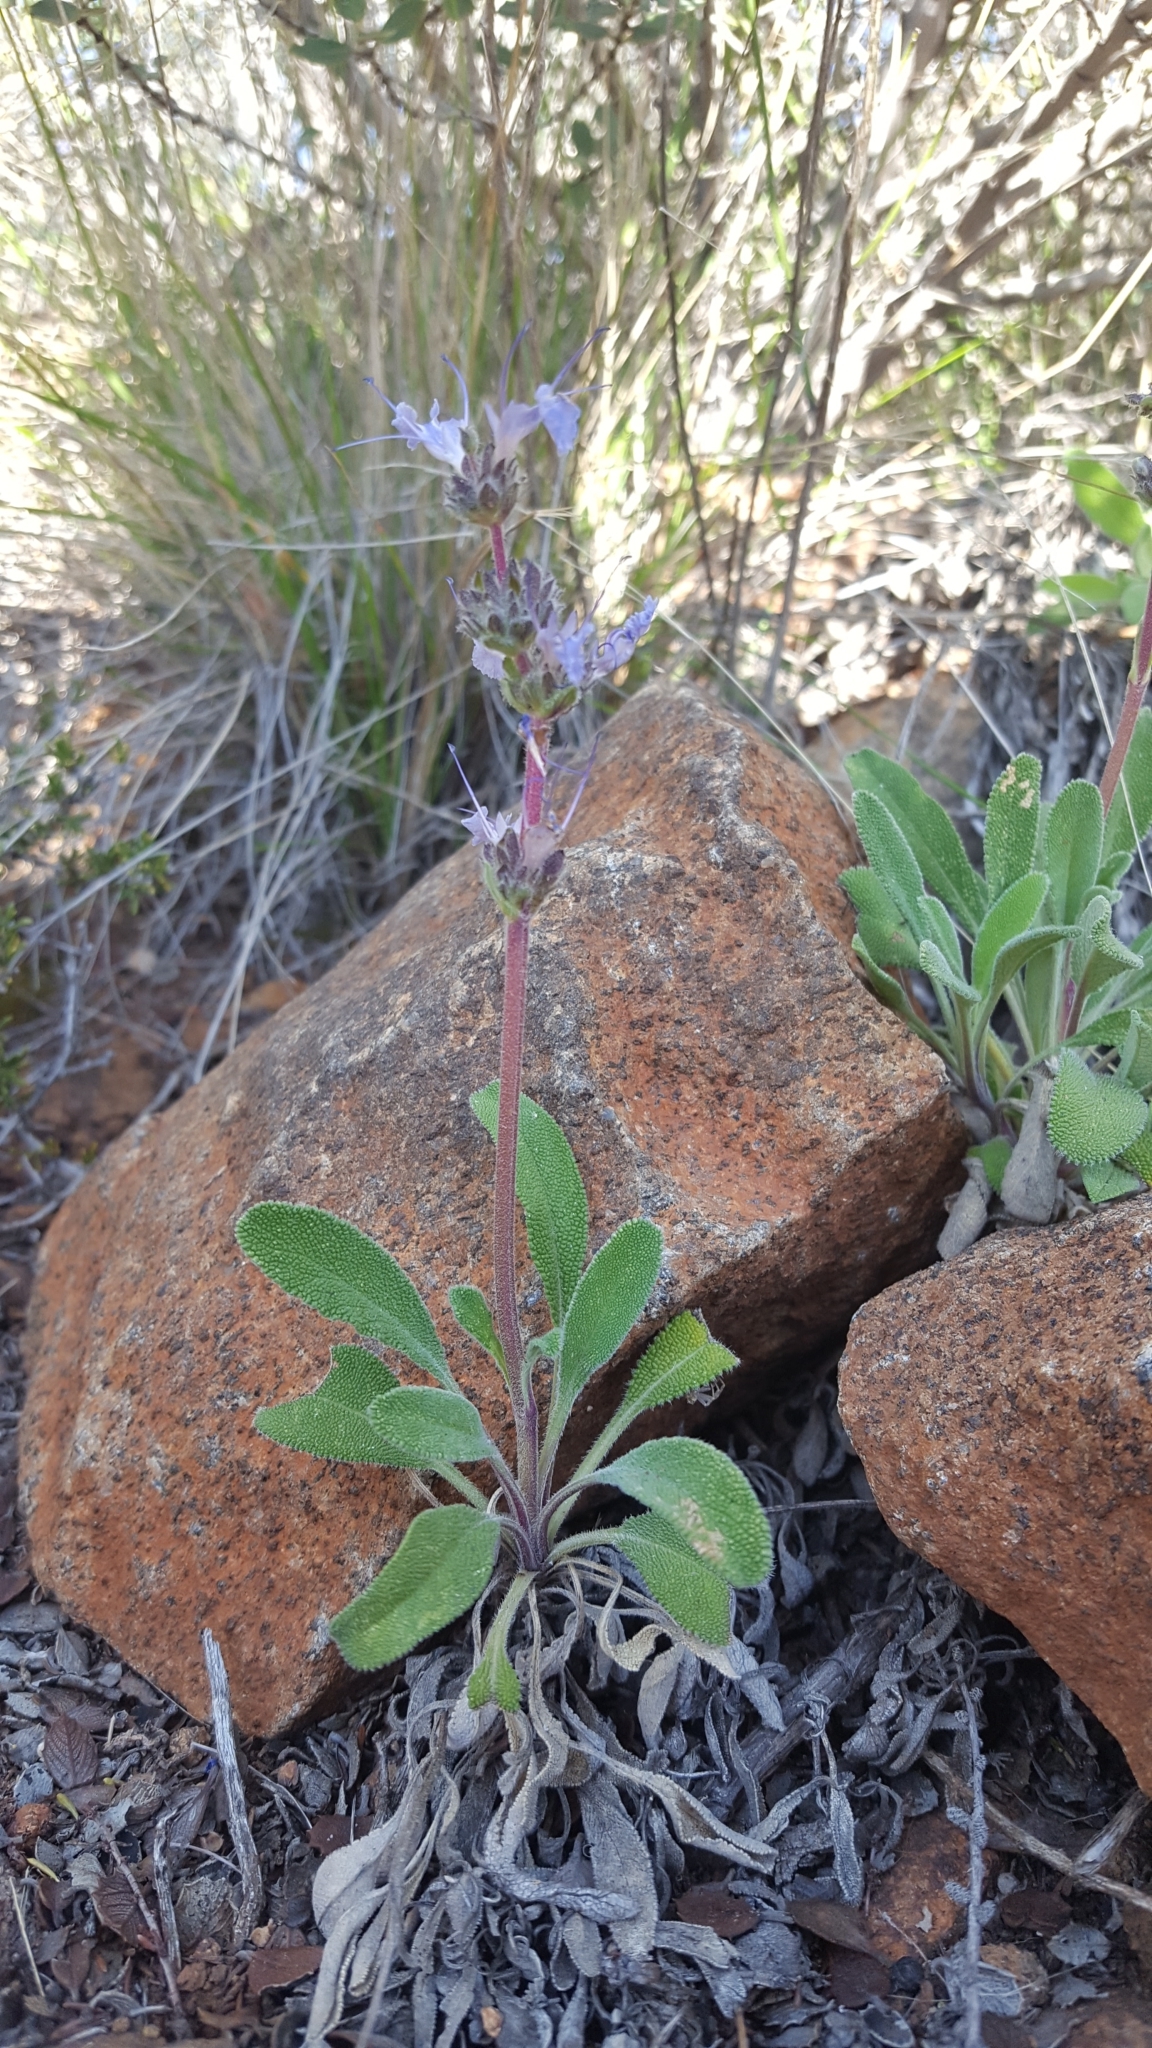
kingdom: Plantae
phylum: Tracheophyta
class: Magnoliopsida
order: Lamiales
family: Lamiaceae
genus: Salvia
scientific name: Salvia sonomensis
